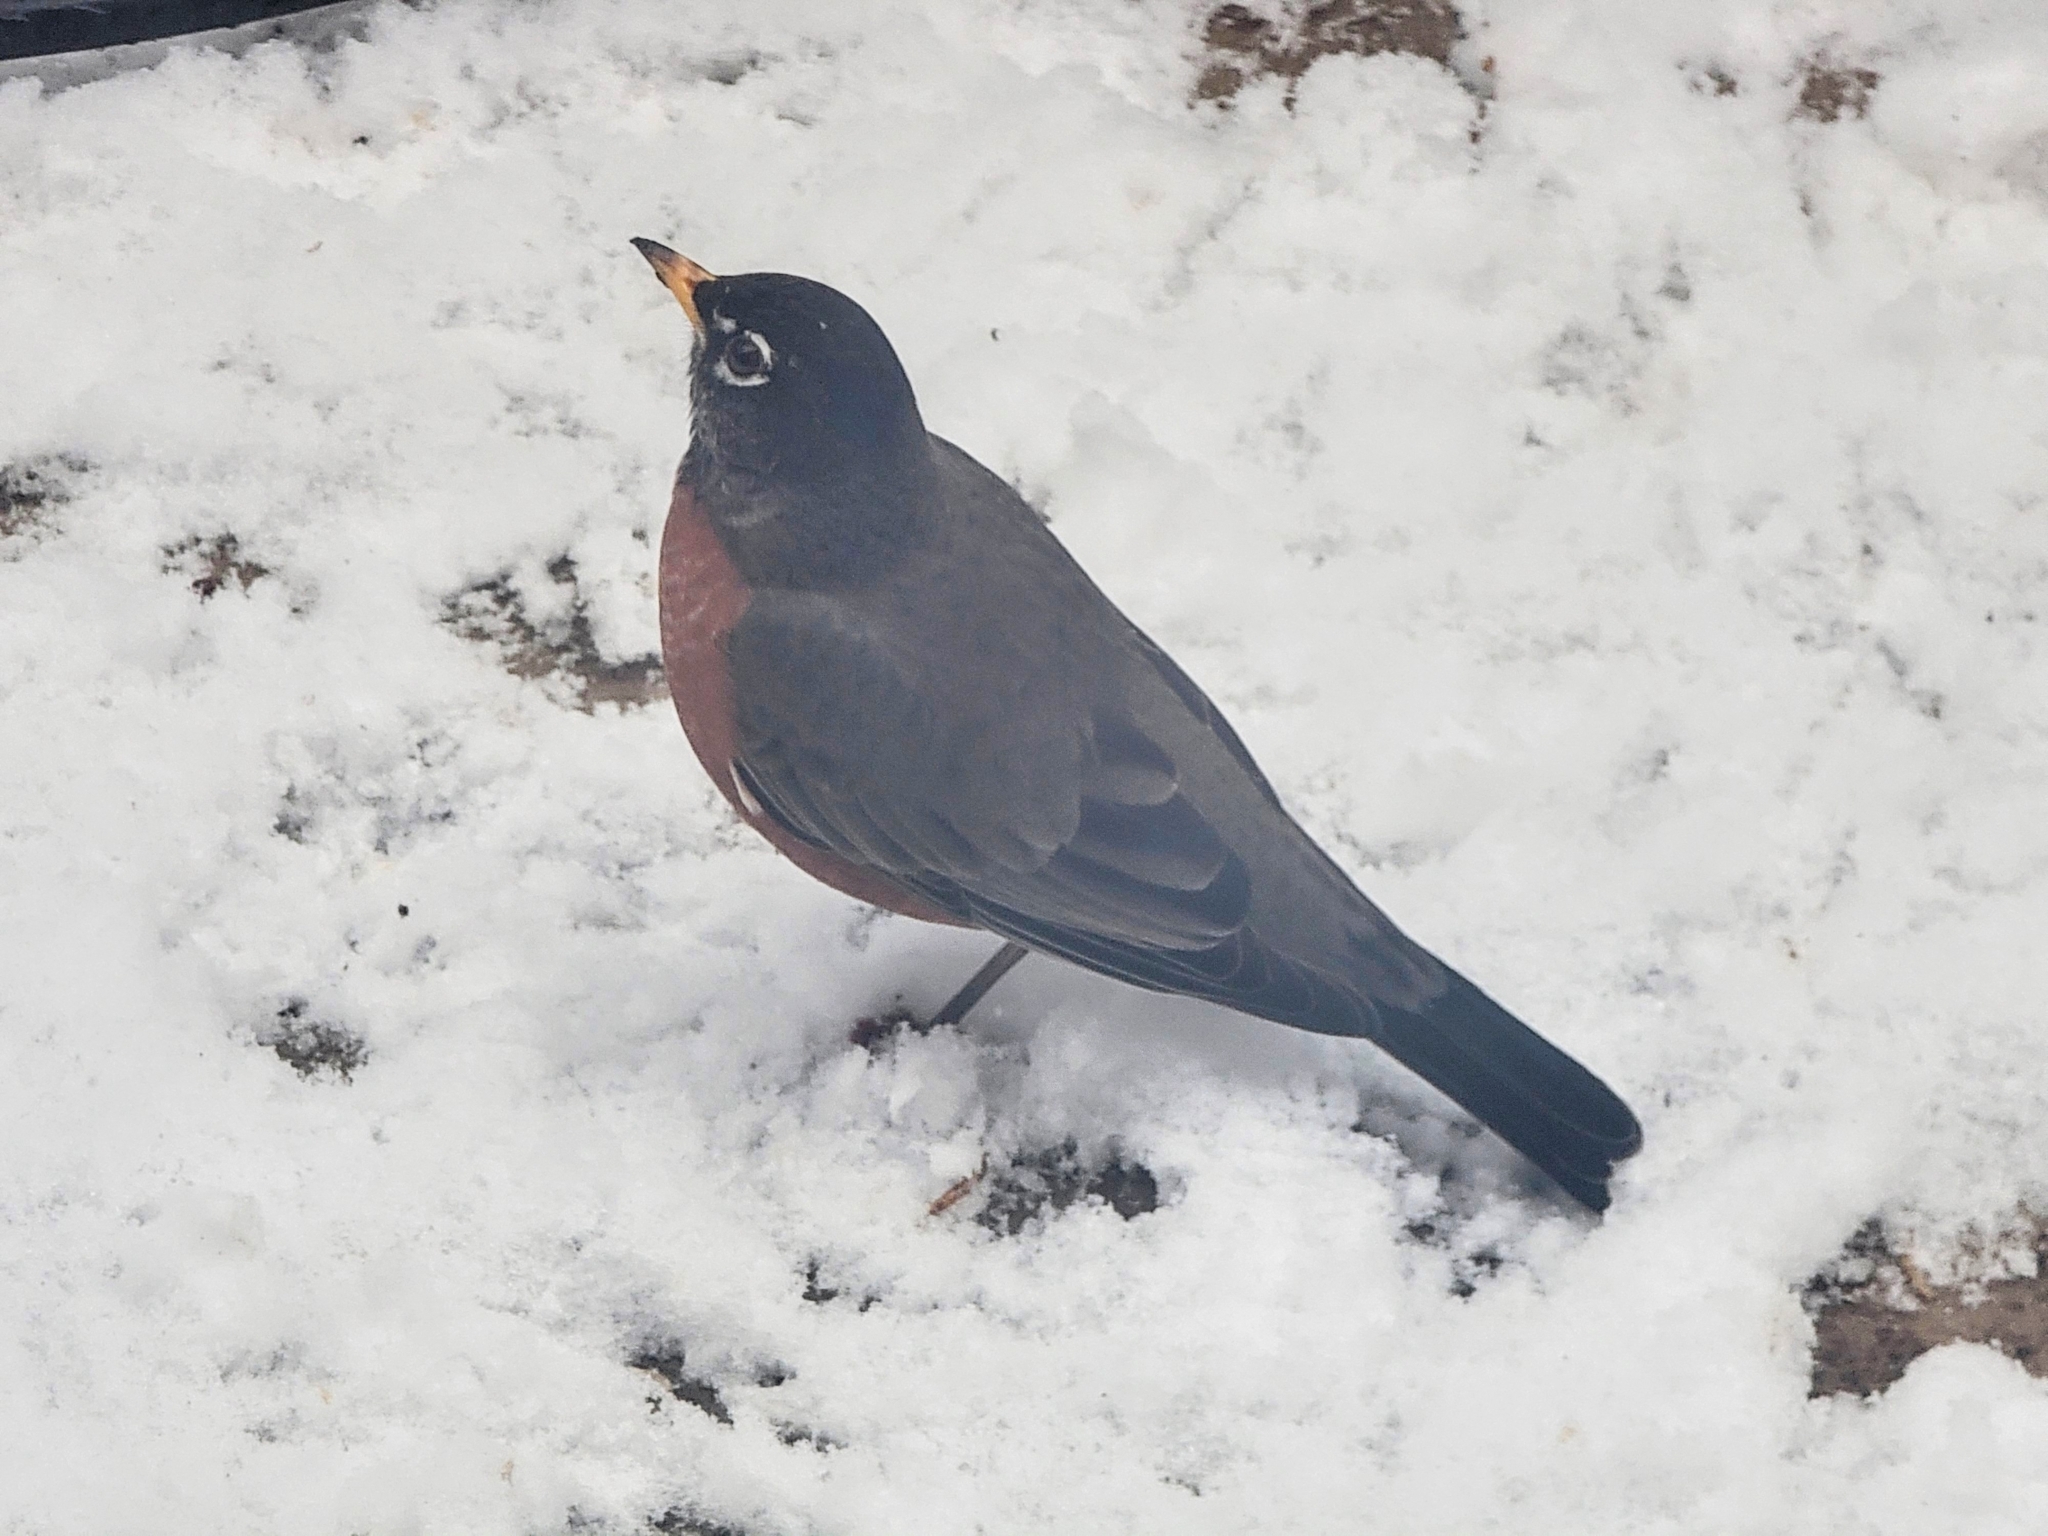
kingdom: Animalia
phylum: Chordata
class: Aves
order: Passeriformes
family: Turdidae
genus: Turdus
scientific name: Turdus migratorius
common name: American robin
